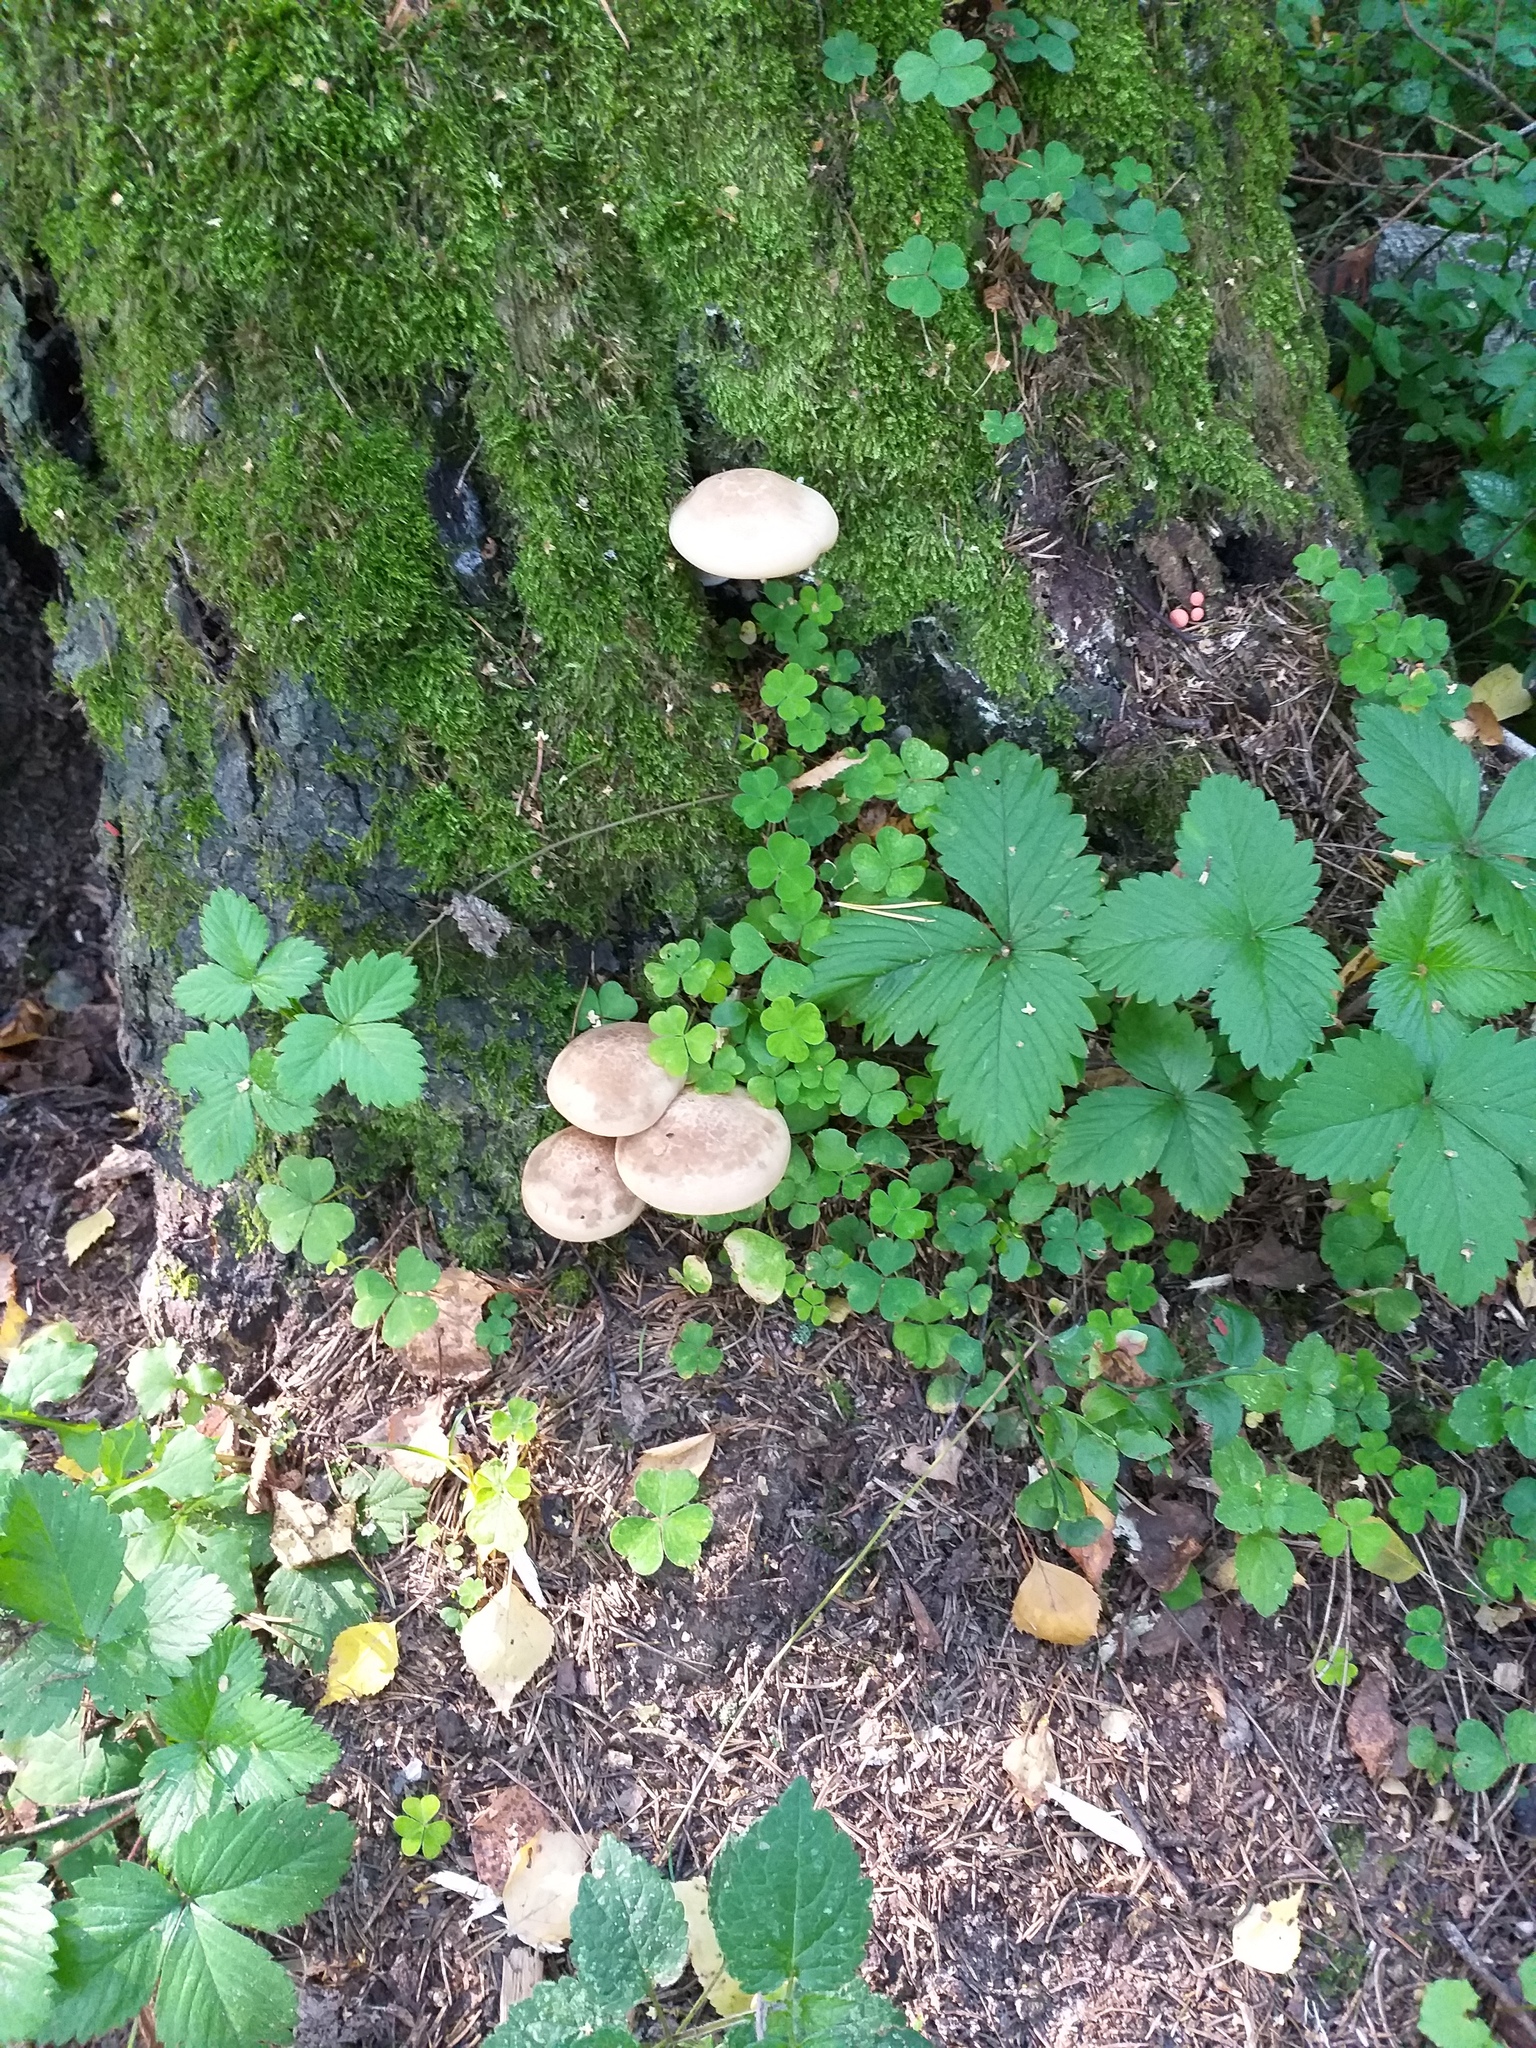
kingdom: Fungi
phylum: Basidiomycota
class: Agaricomycetes
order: Agaricales
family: Lyophyllaceae
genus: Hypsizygus
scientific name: Hypsizygus ulmarius
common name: Elm leech
